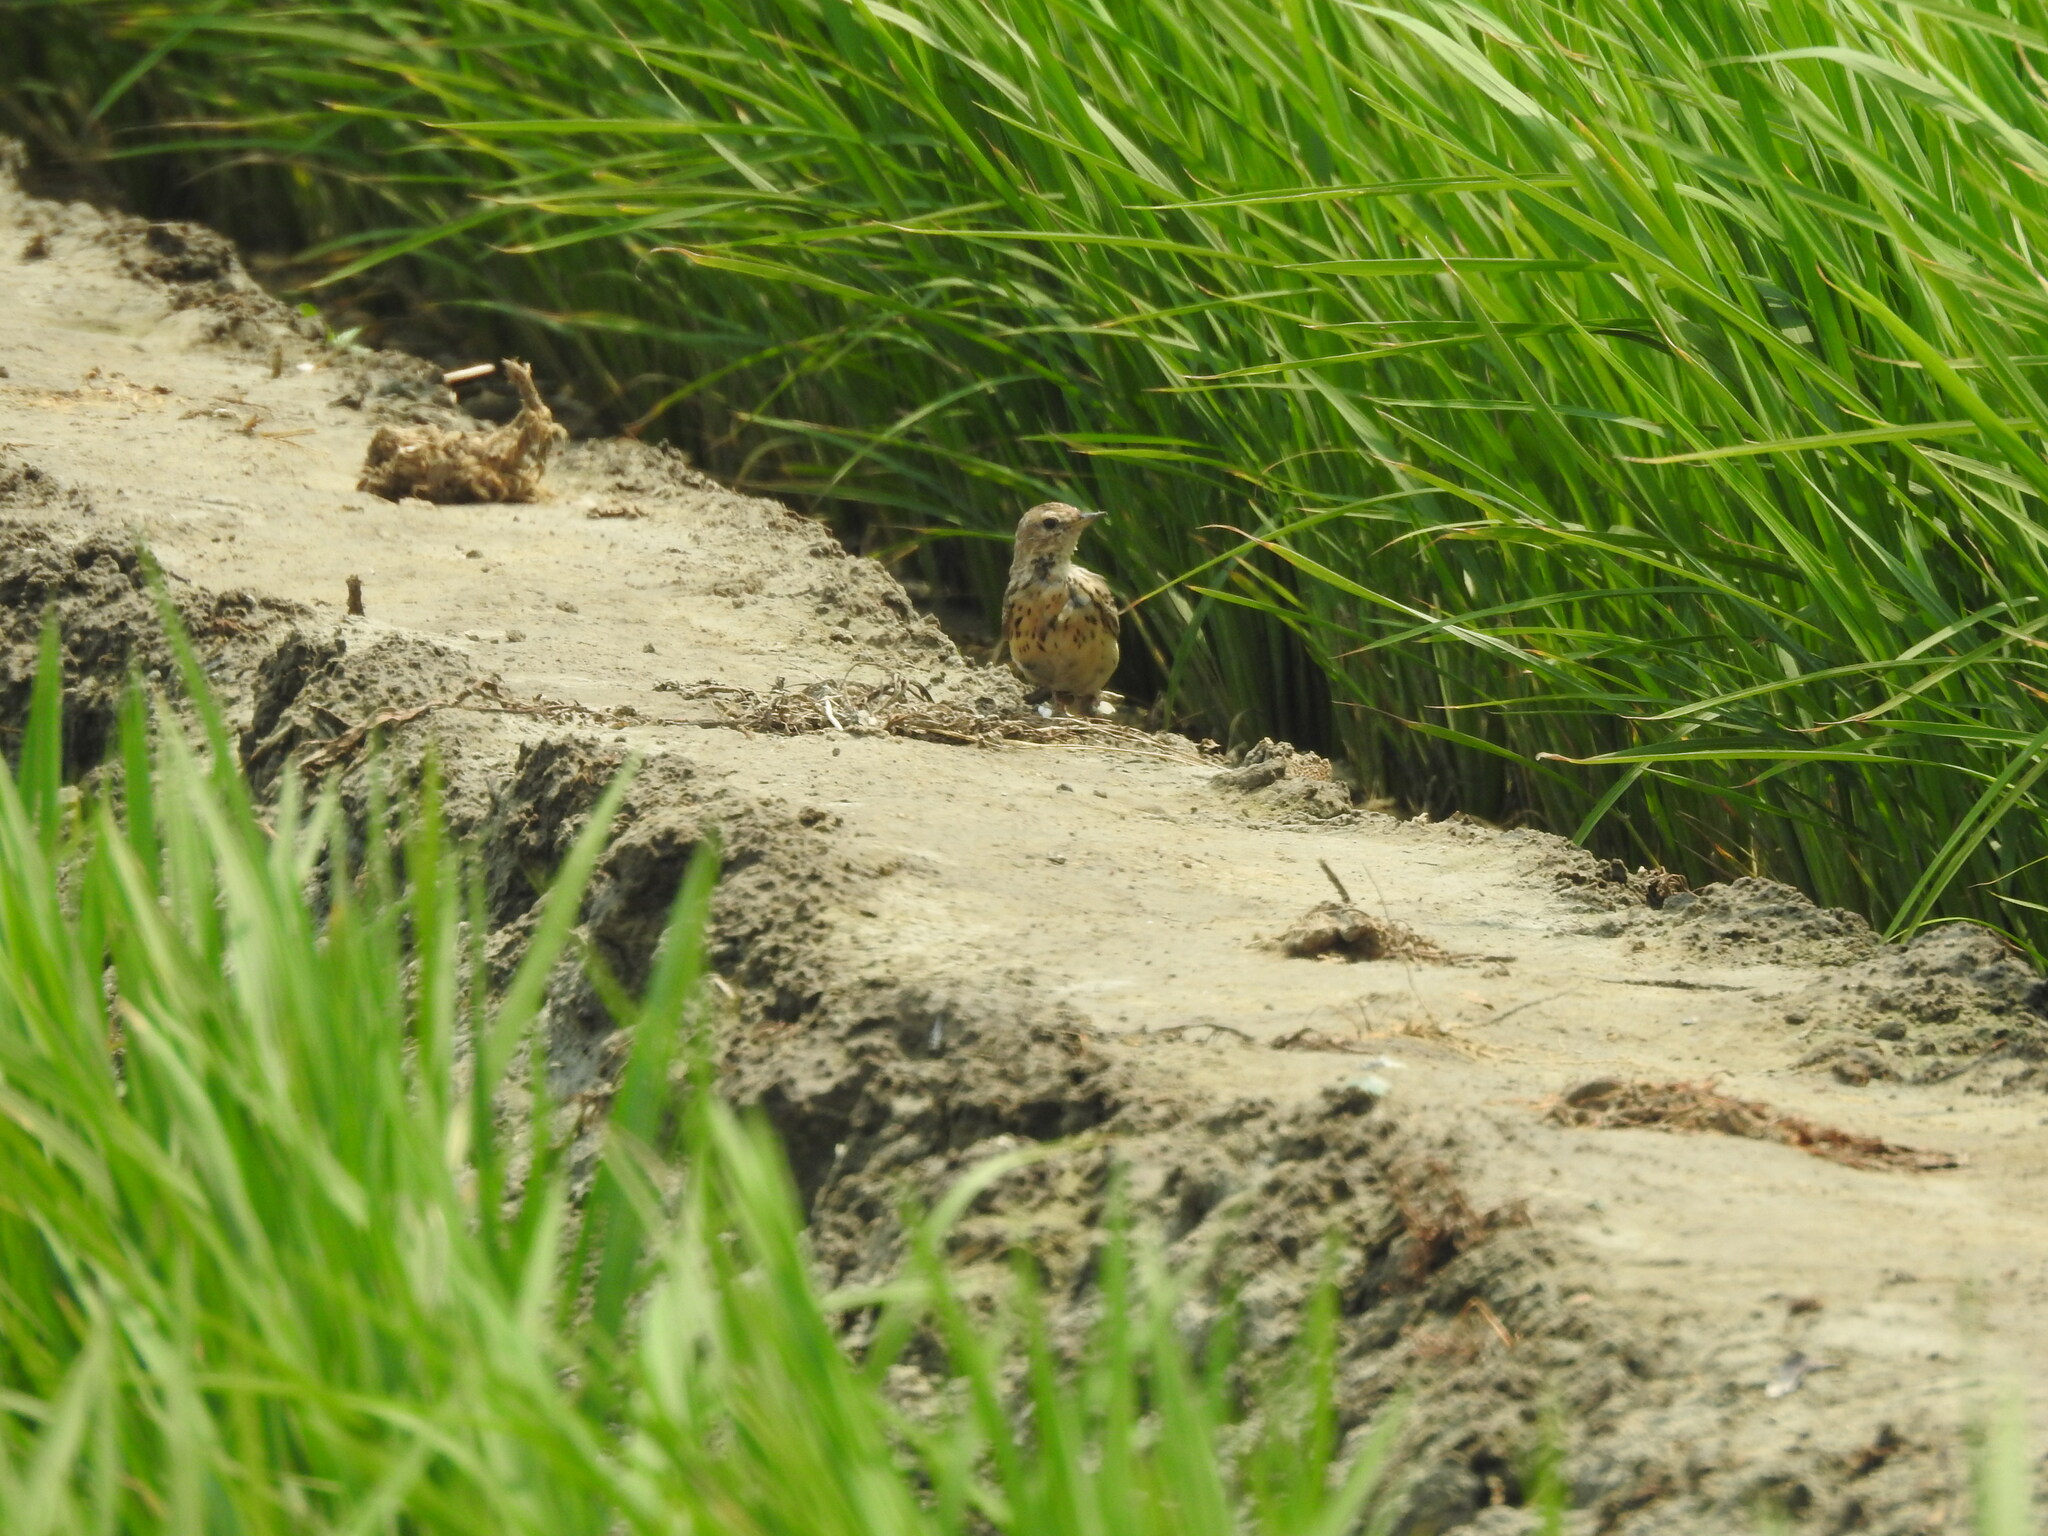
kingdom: Animalia
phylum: Chordata
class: Aves
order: Passeriformes
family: Motacillidae
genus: Anthus
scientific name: Anthus cervinus
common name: Red-throated pipit
